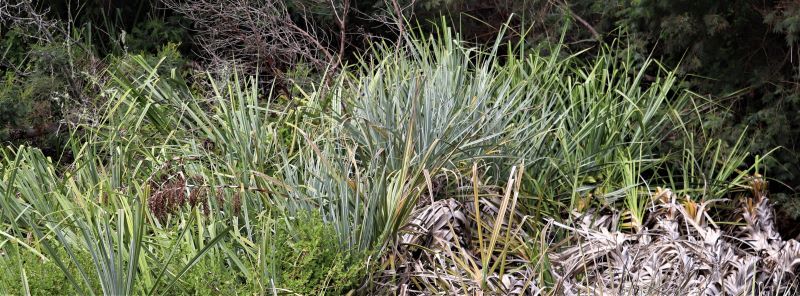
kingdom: Plantae
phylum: Tracheophyta
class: Liliopsida
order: Poales
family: Thurniaceae
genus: Prionium
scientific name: Prionium serratum
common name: Palmiet
